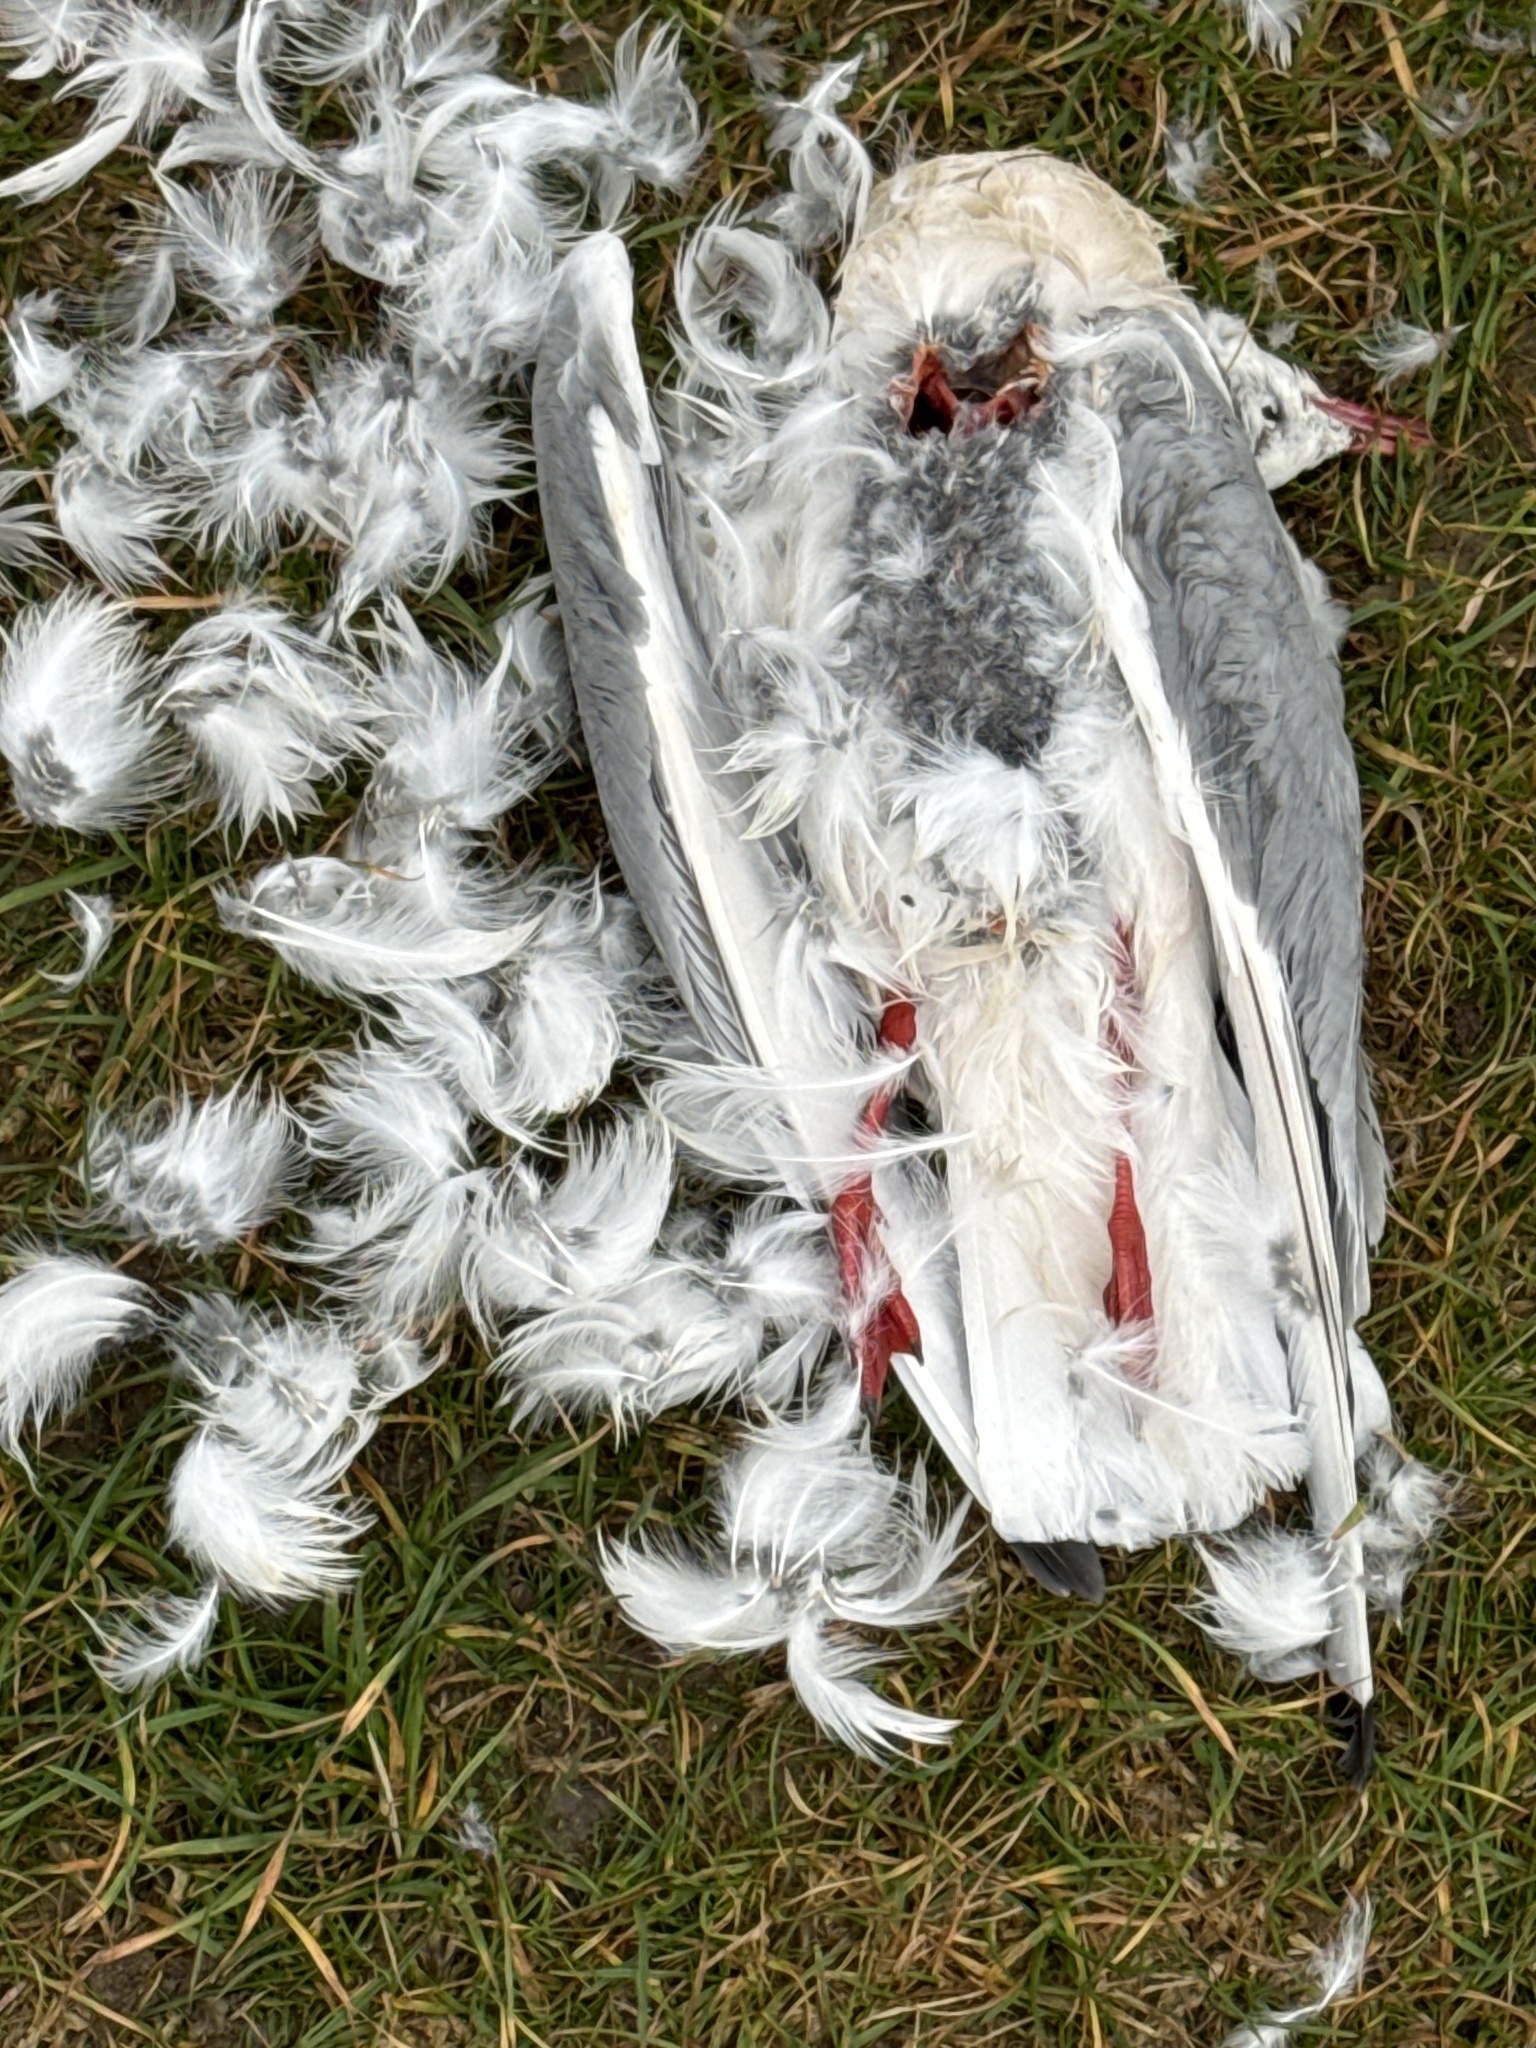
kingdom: Animalia
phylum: Chordata
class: Aves
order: Charadriiformes
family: Laridae
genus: Chroicocephalus
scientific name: Chroicocephalus ridibundus
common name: Black-headed gull
